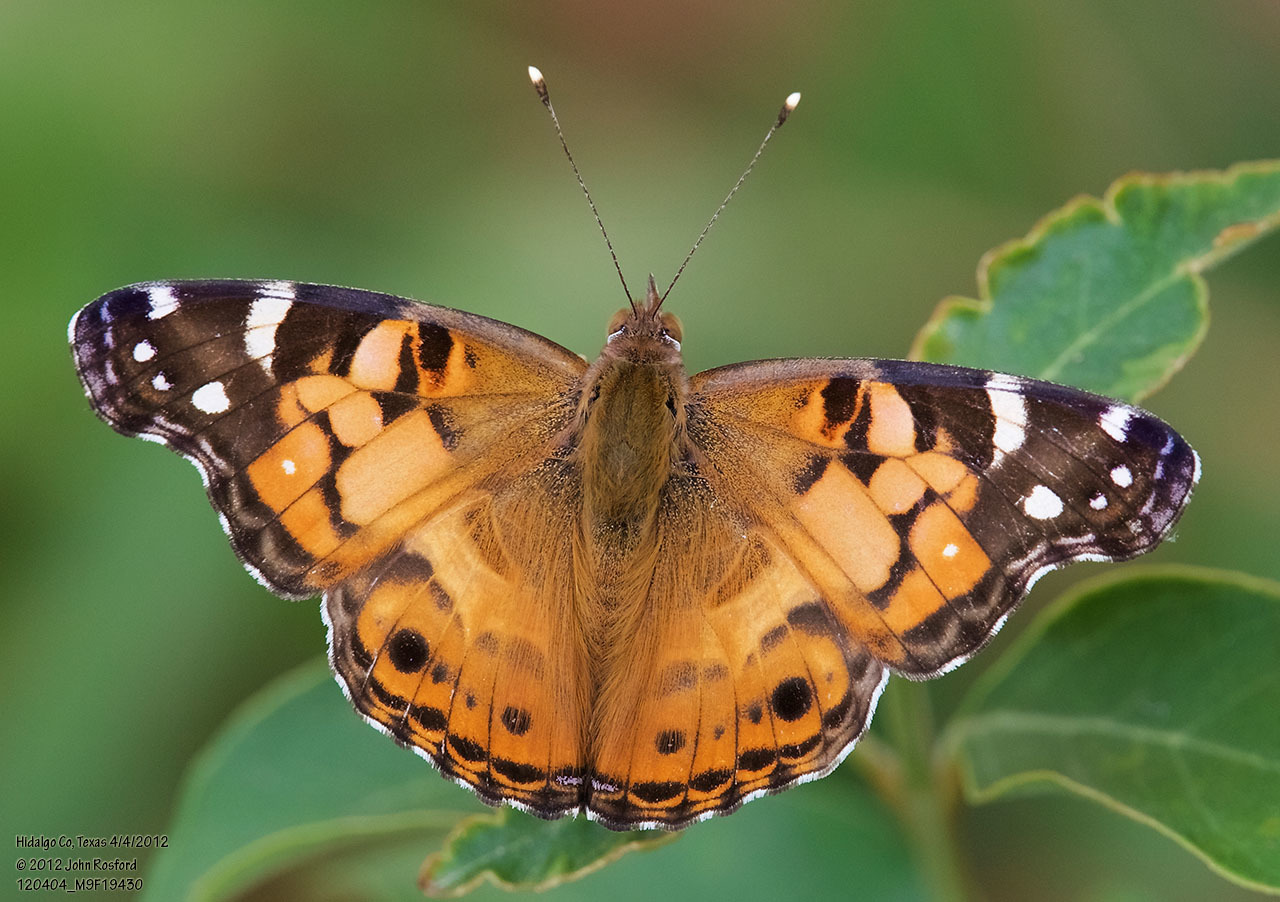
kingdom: Animalia
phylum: Arthropoda
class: Insecta
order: Lepidoptera
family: Nymphalidae
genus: Vanessa
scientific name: Vanessa virginiensis
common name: American lady
